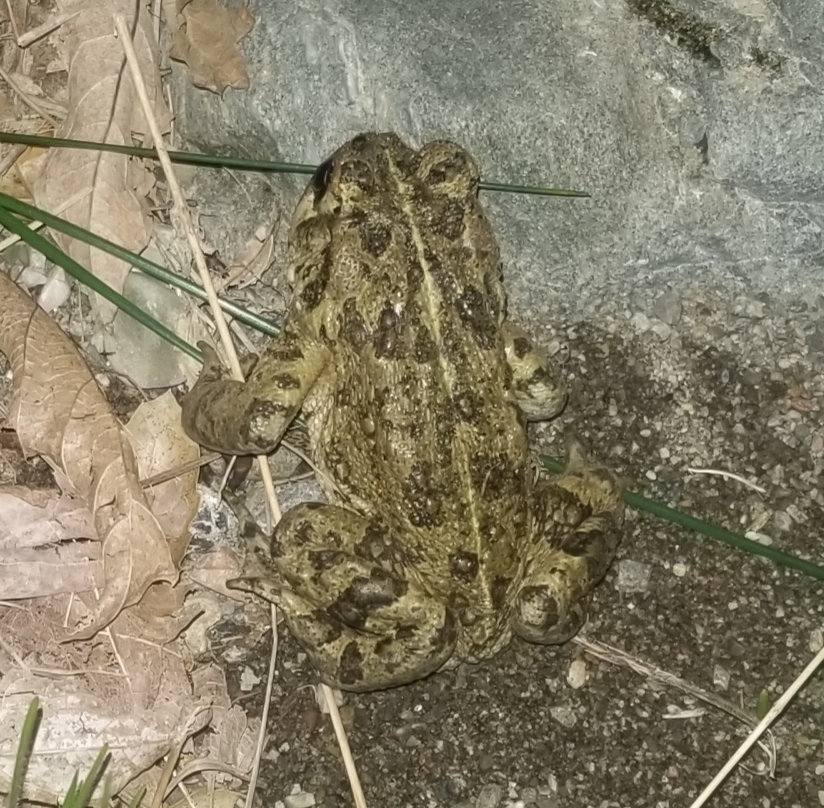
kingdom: Animalia
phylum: Chordata
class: Amphibia
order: Anura
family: Bufonidae
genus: Anaxyrus
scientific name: Anaxyrus boreas
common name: Western toad
